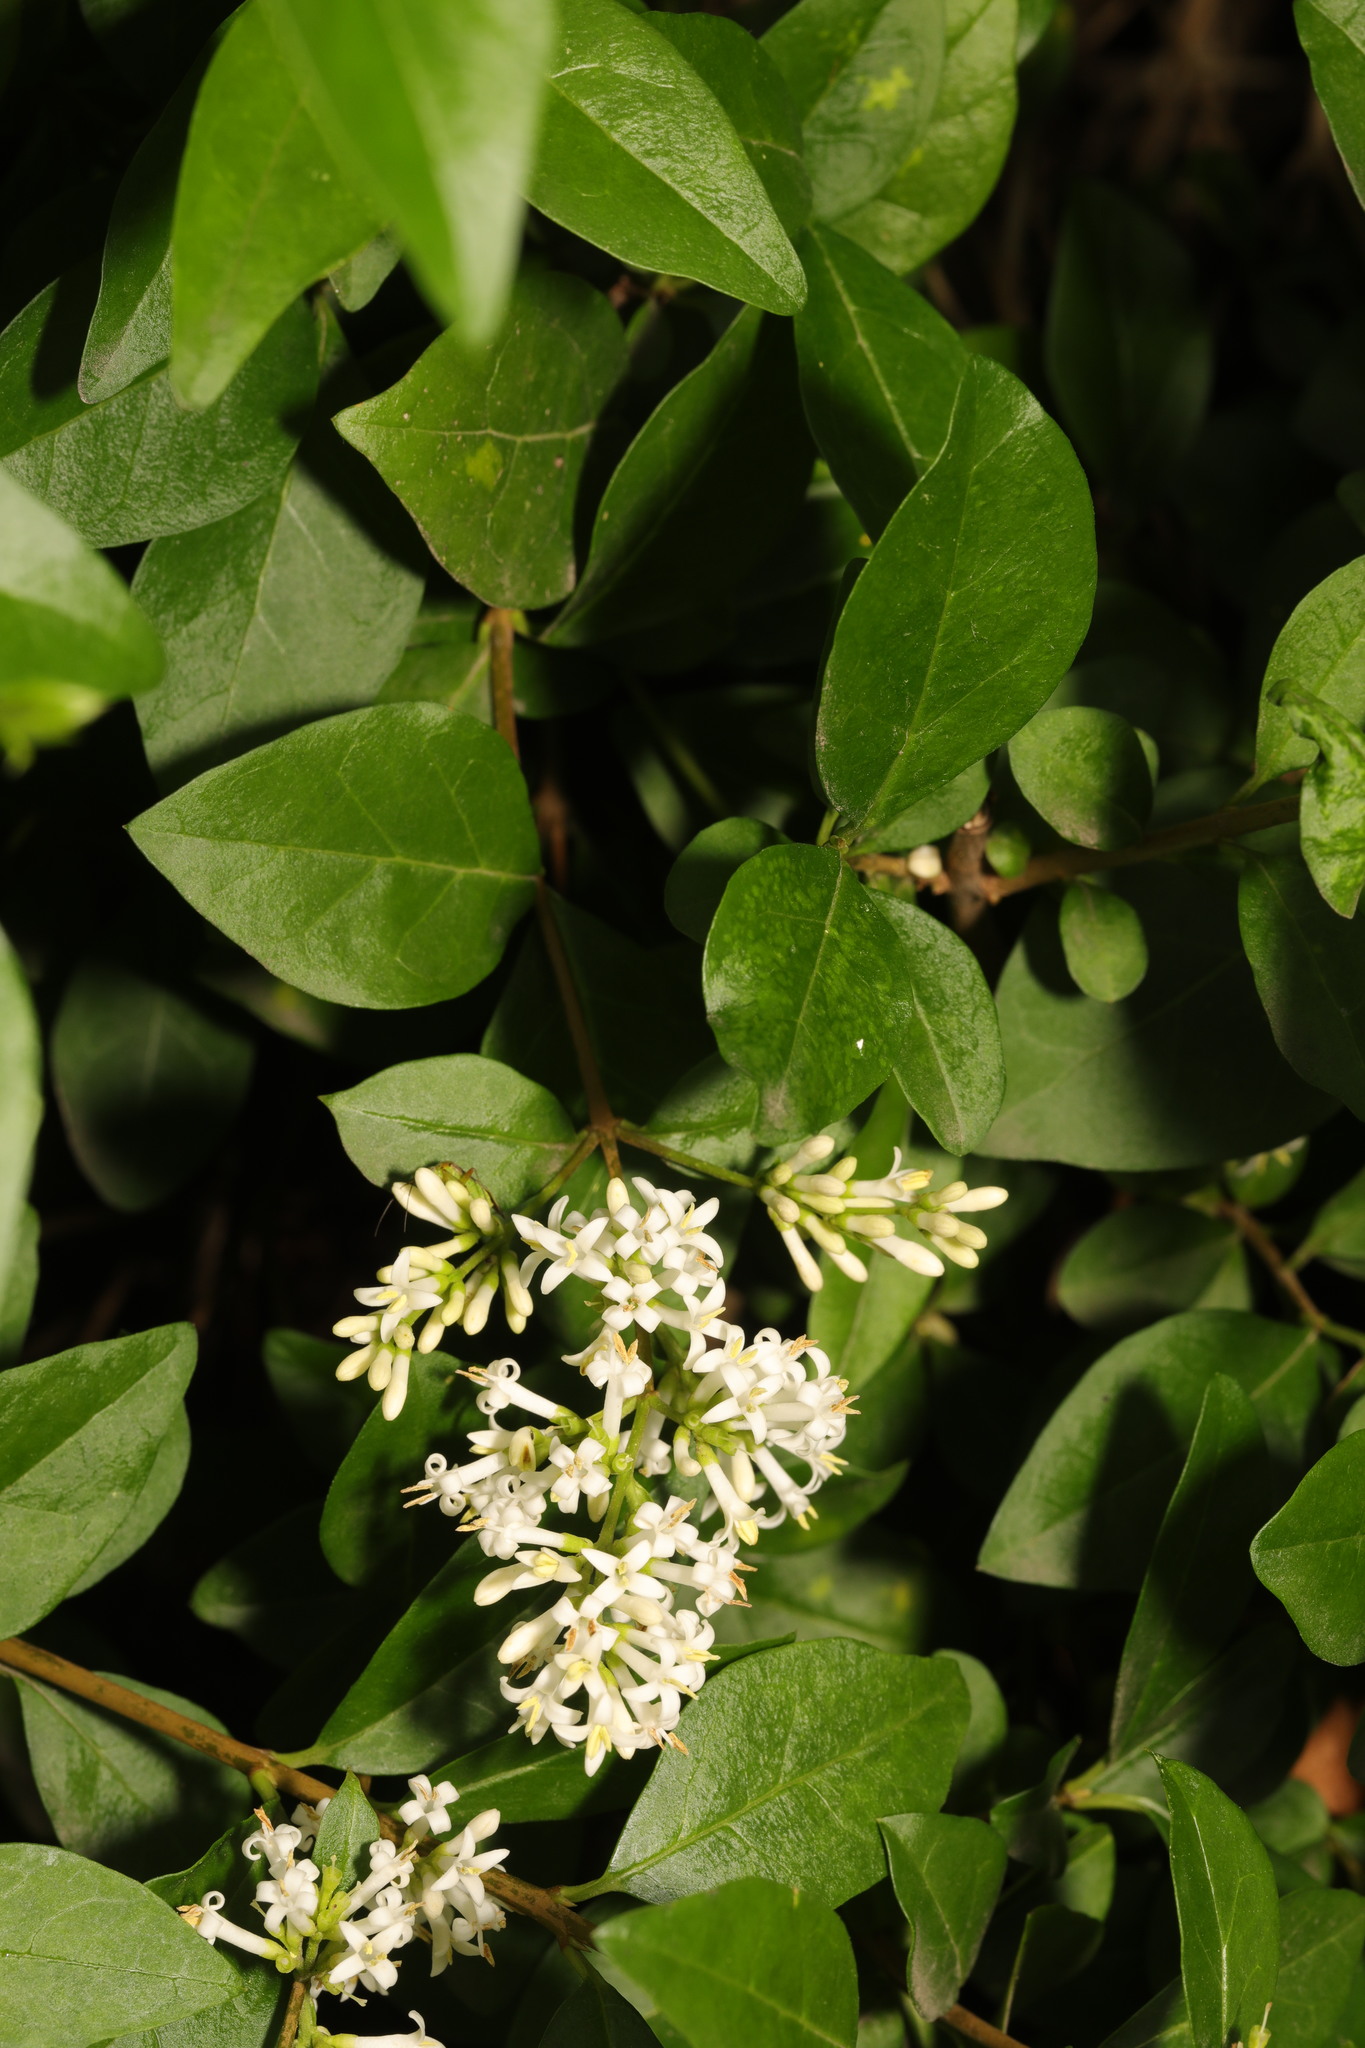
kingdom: Plantae
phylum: Tracheophyta
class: Magnoliopsida
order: Lamiales
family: Oleaceae
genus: Ligustrum
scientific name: Ligustrum ovalifolium
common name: California privet
